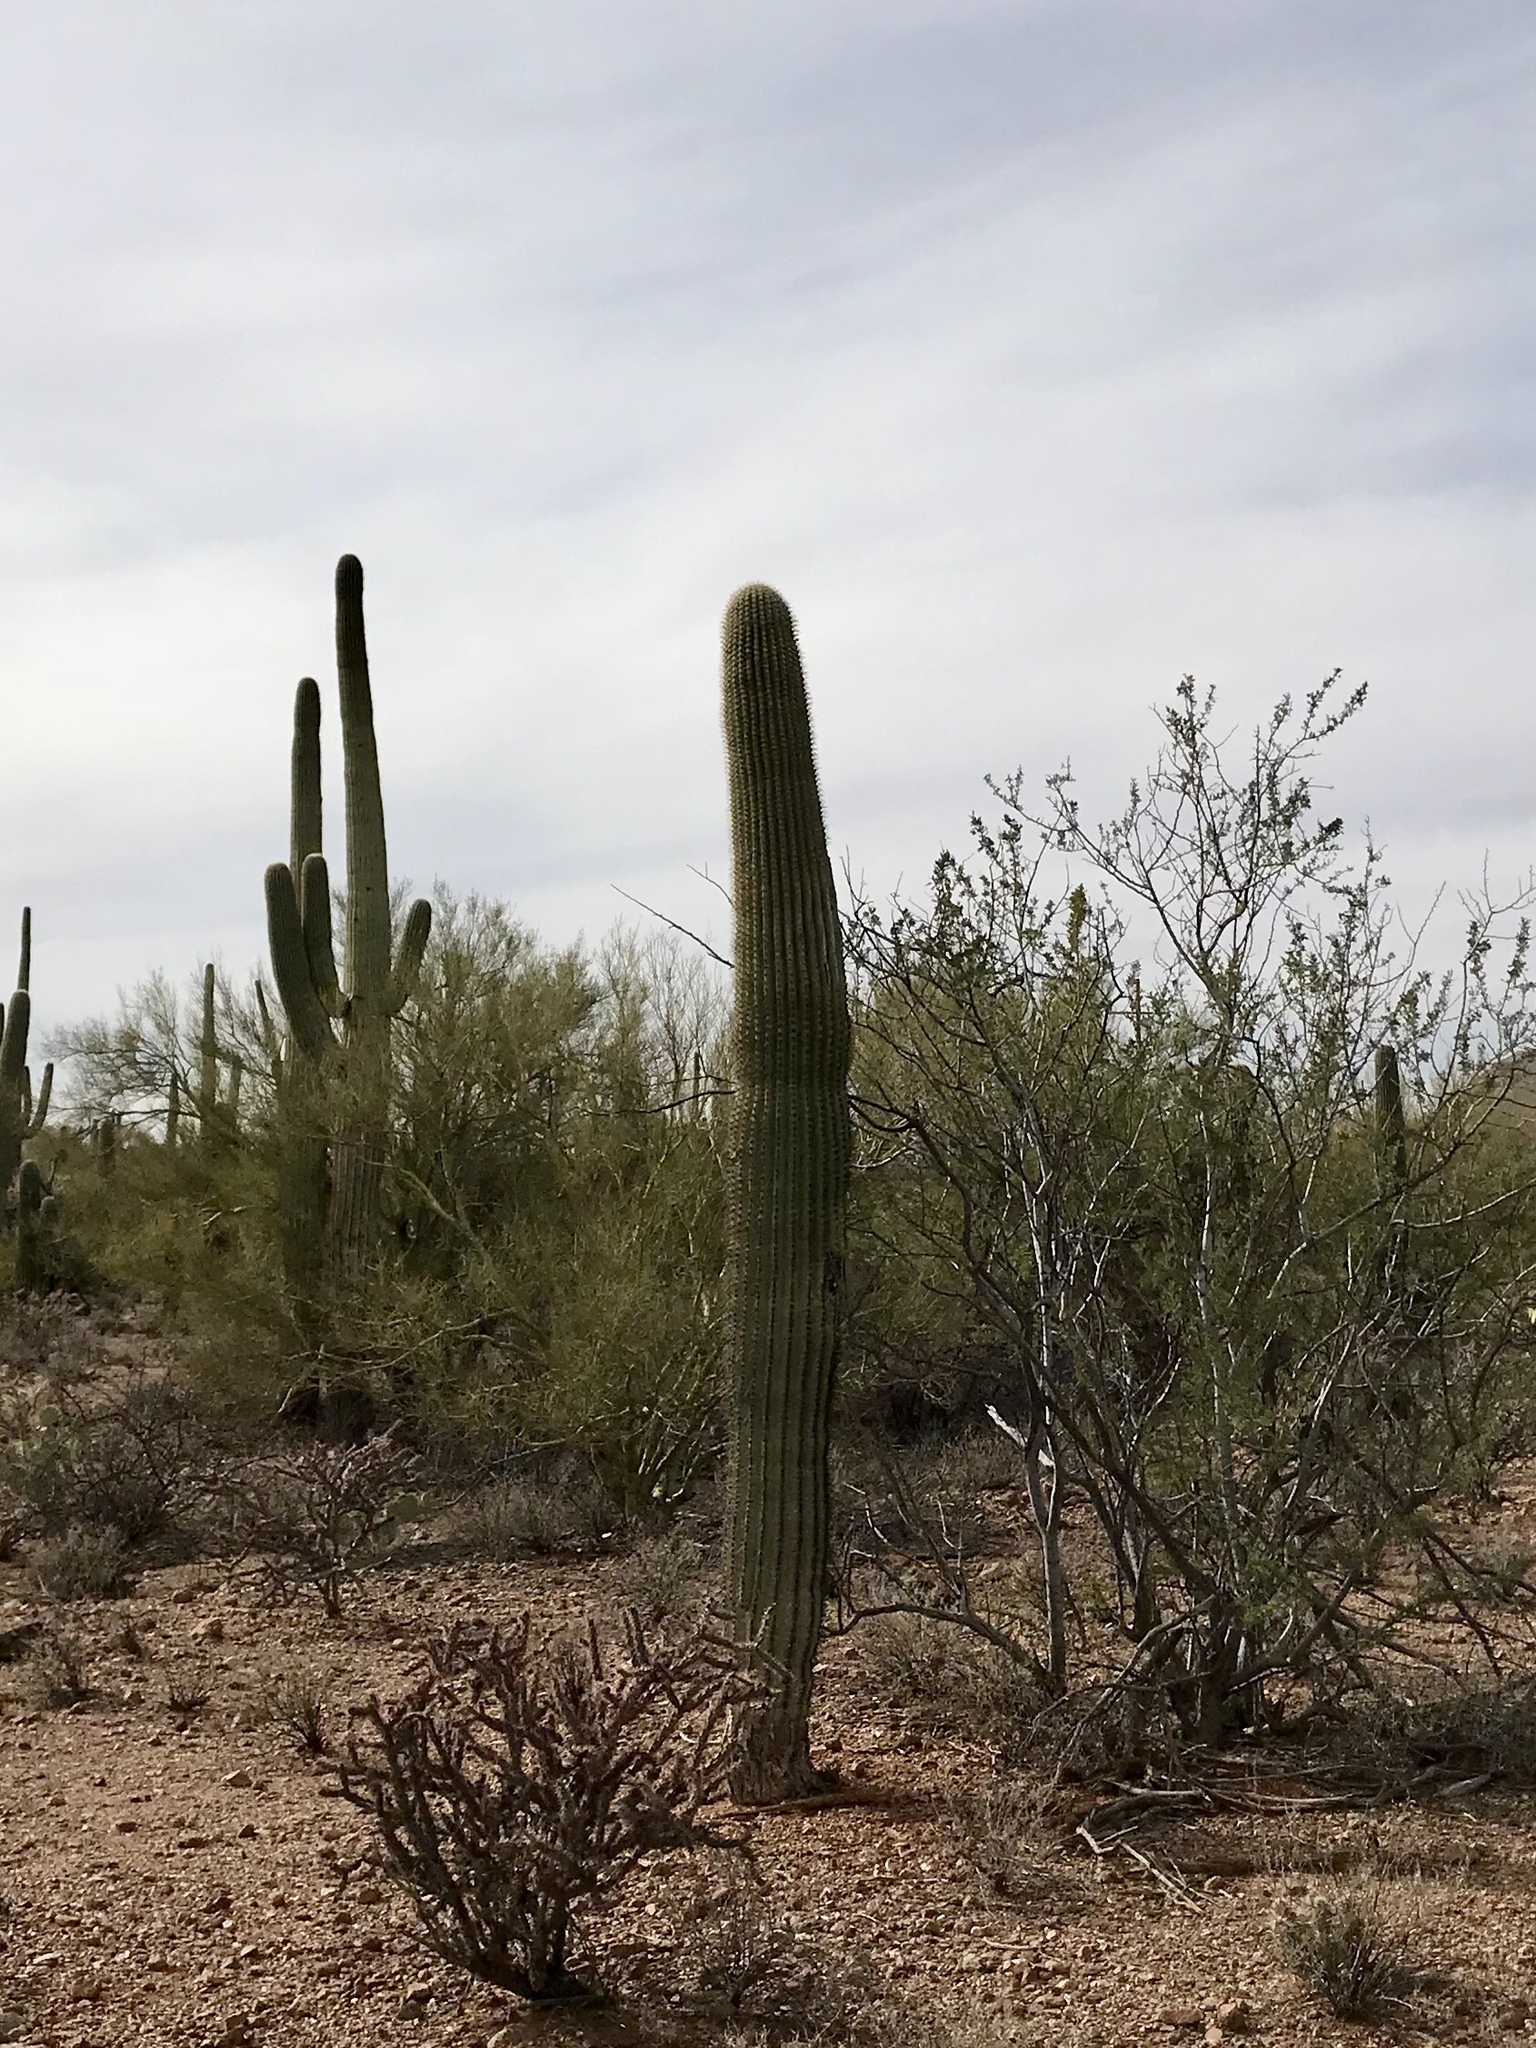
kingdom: Plantae
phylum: Tracheophyta
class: Magnoliopsida
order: Caryophyllales
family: Cactaceae
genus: Carnegiea
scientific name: Carnegiea gigantea
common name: Saguaro
